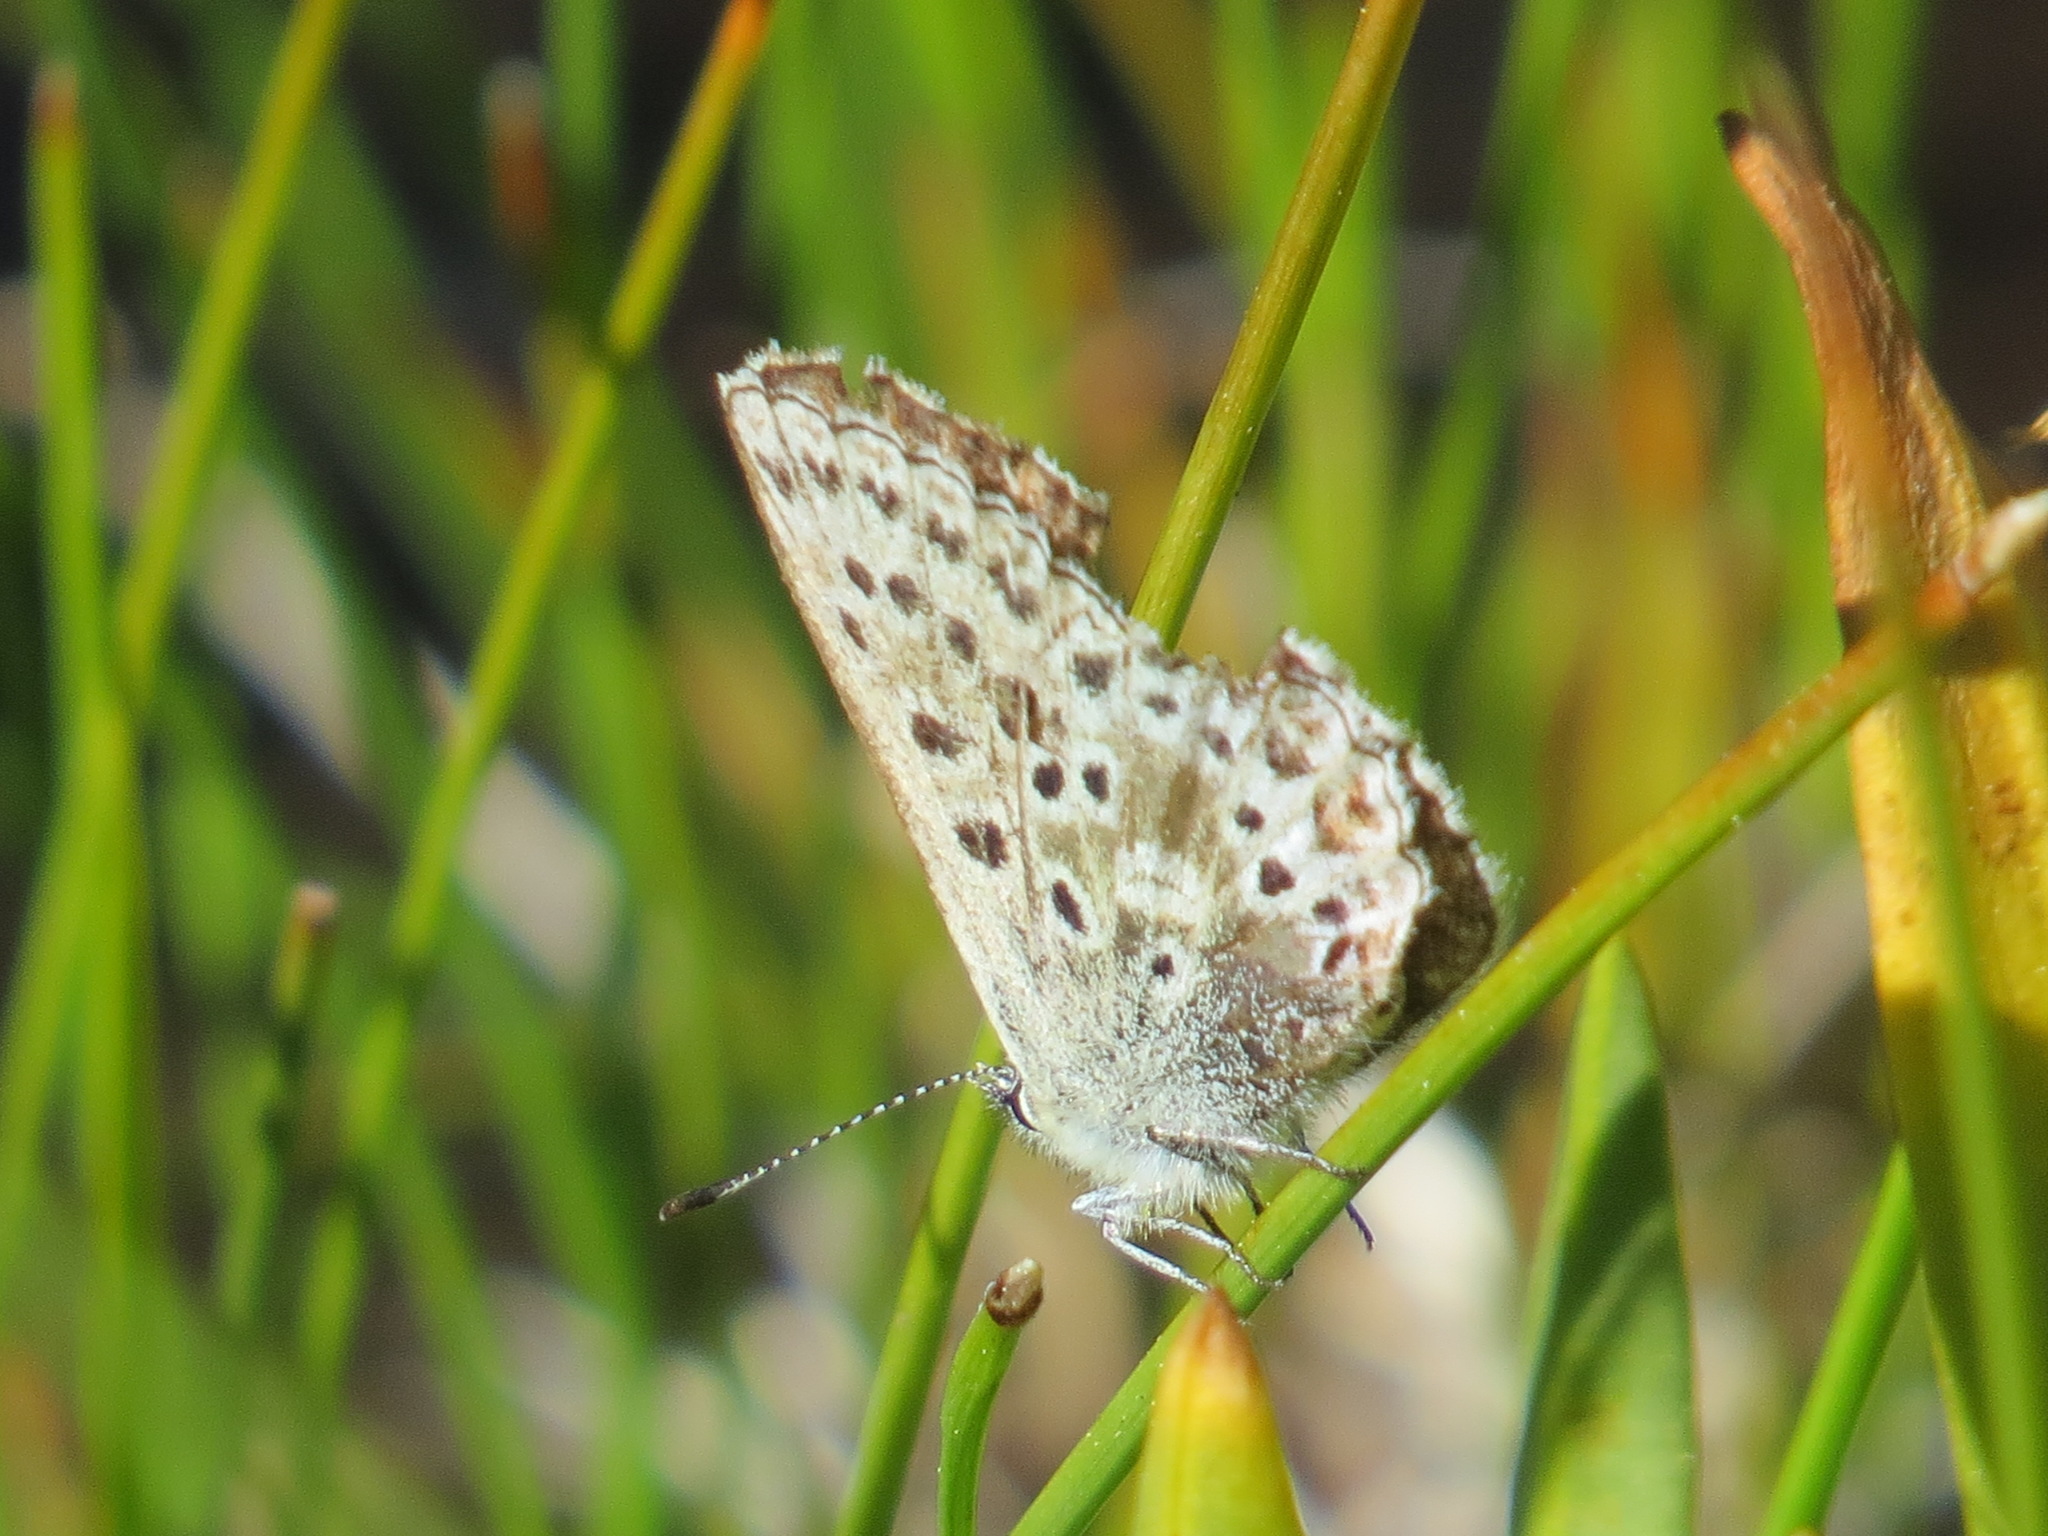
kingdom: Animalia
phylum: Arthropoda
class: Insecta
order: Lepidoptera
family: Lycaenidae
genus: Agriades
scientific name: Agriades podarce
